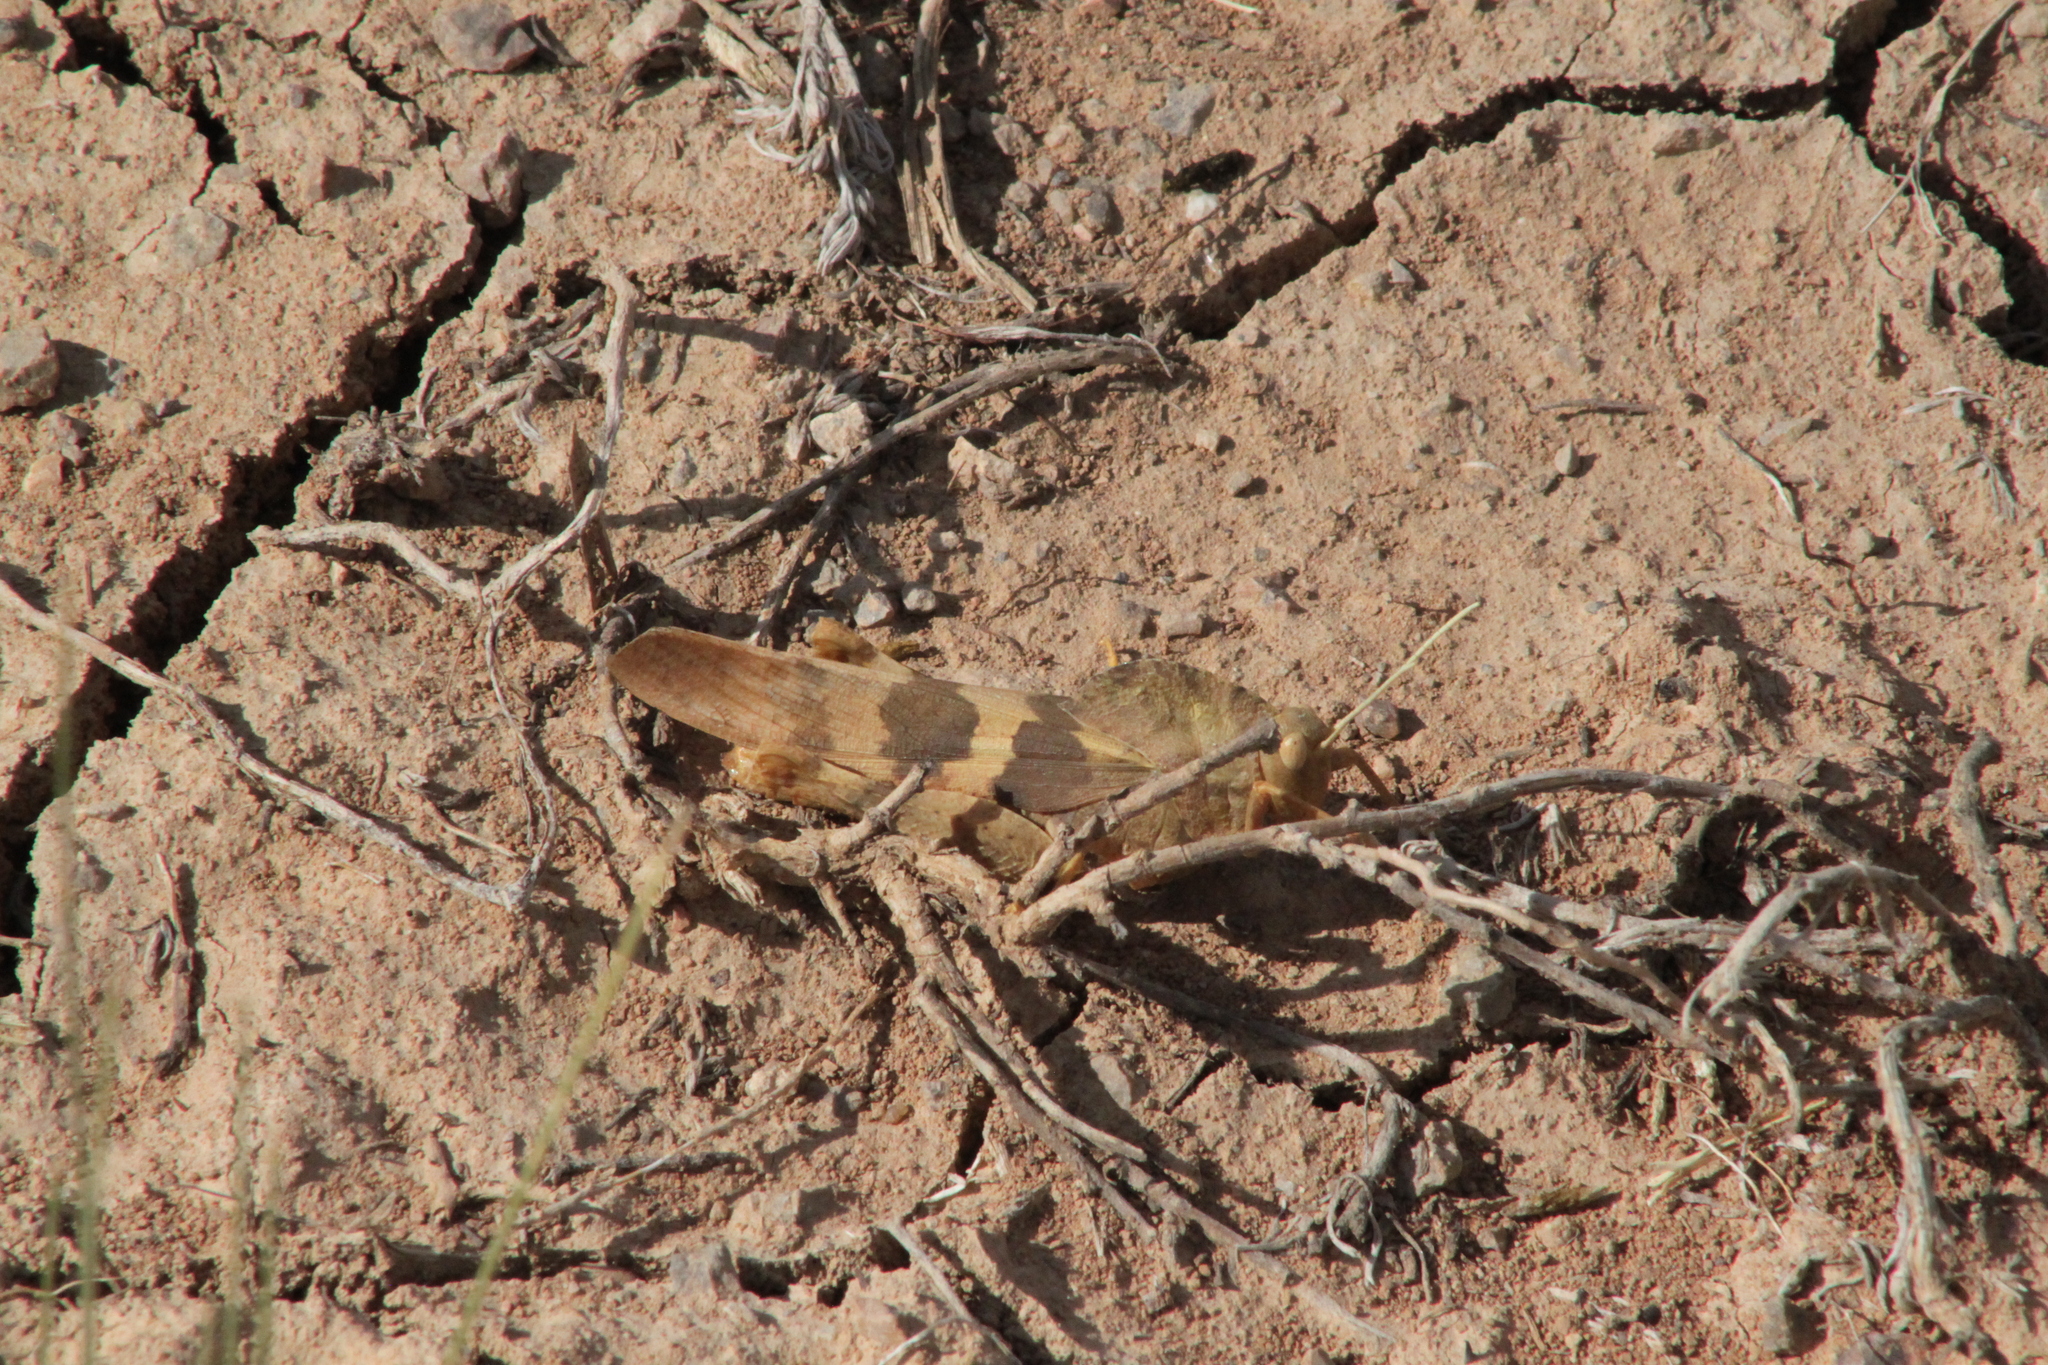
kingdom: Animalia
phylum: Arthropoda
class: Insecta
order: Orthoptera
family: Acrididae
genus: Pyrgodera
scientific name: Pyrgodera armata
